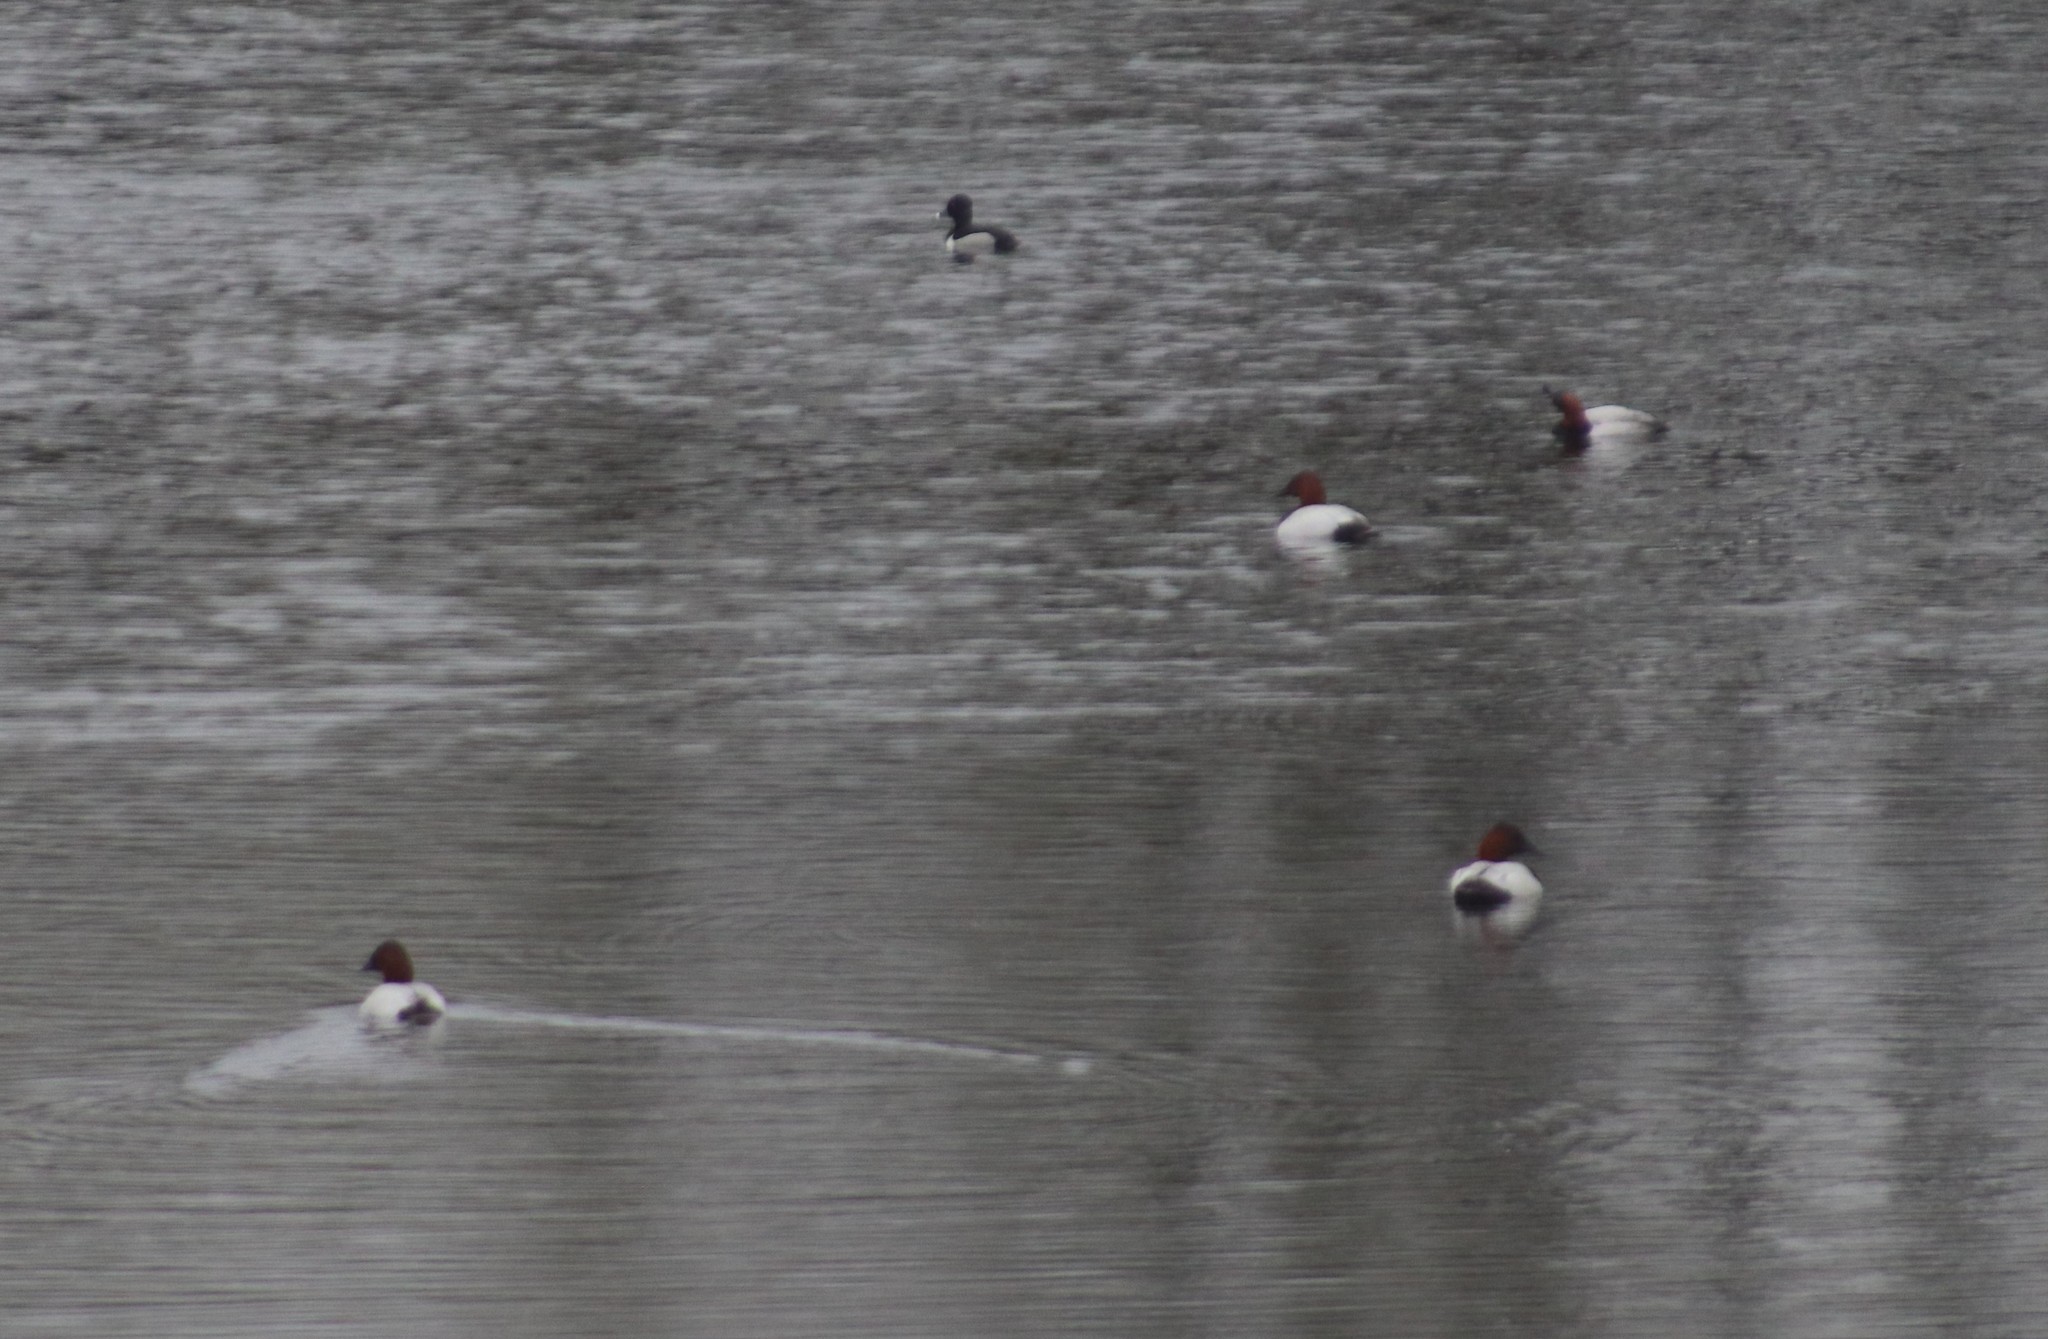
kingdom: Animalia
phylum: Chordata
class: Aves
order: Anseriformes
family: Anatidae
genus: Aythya
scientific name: Aythya valisineria
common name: Canvasback
